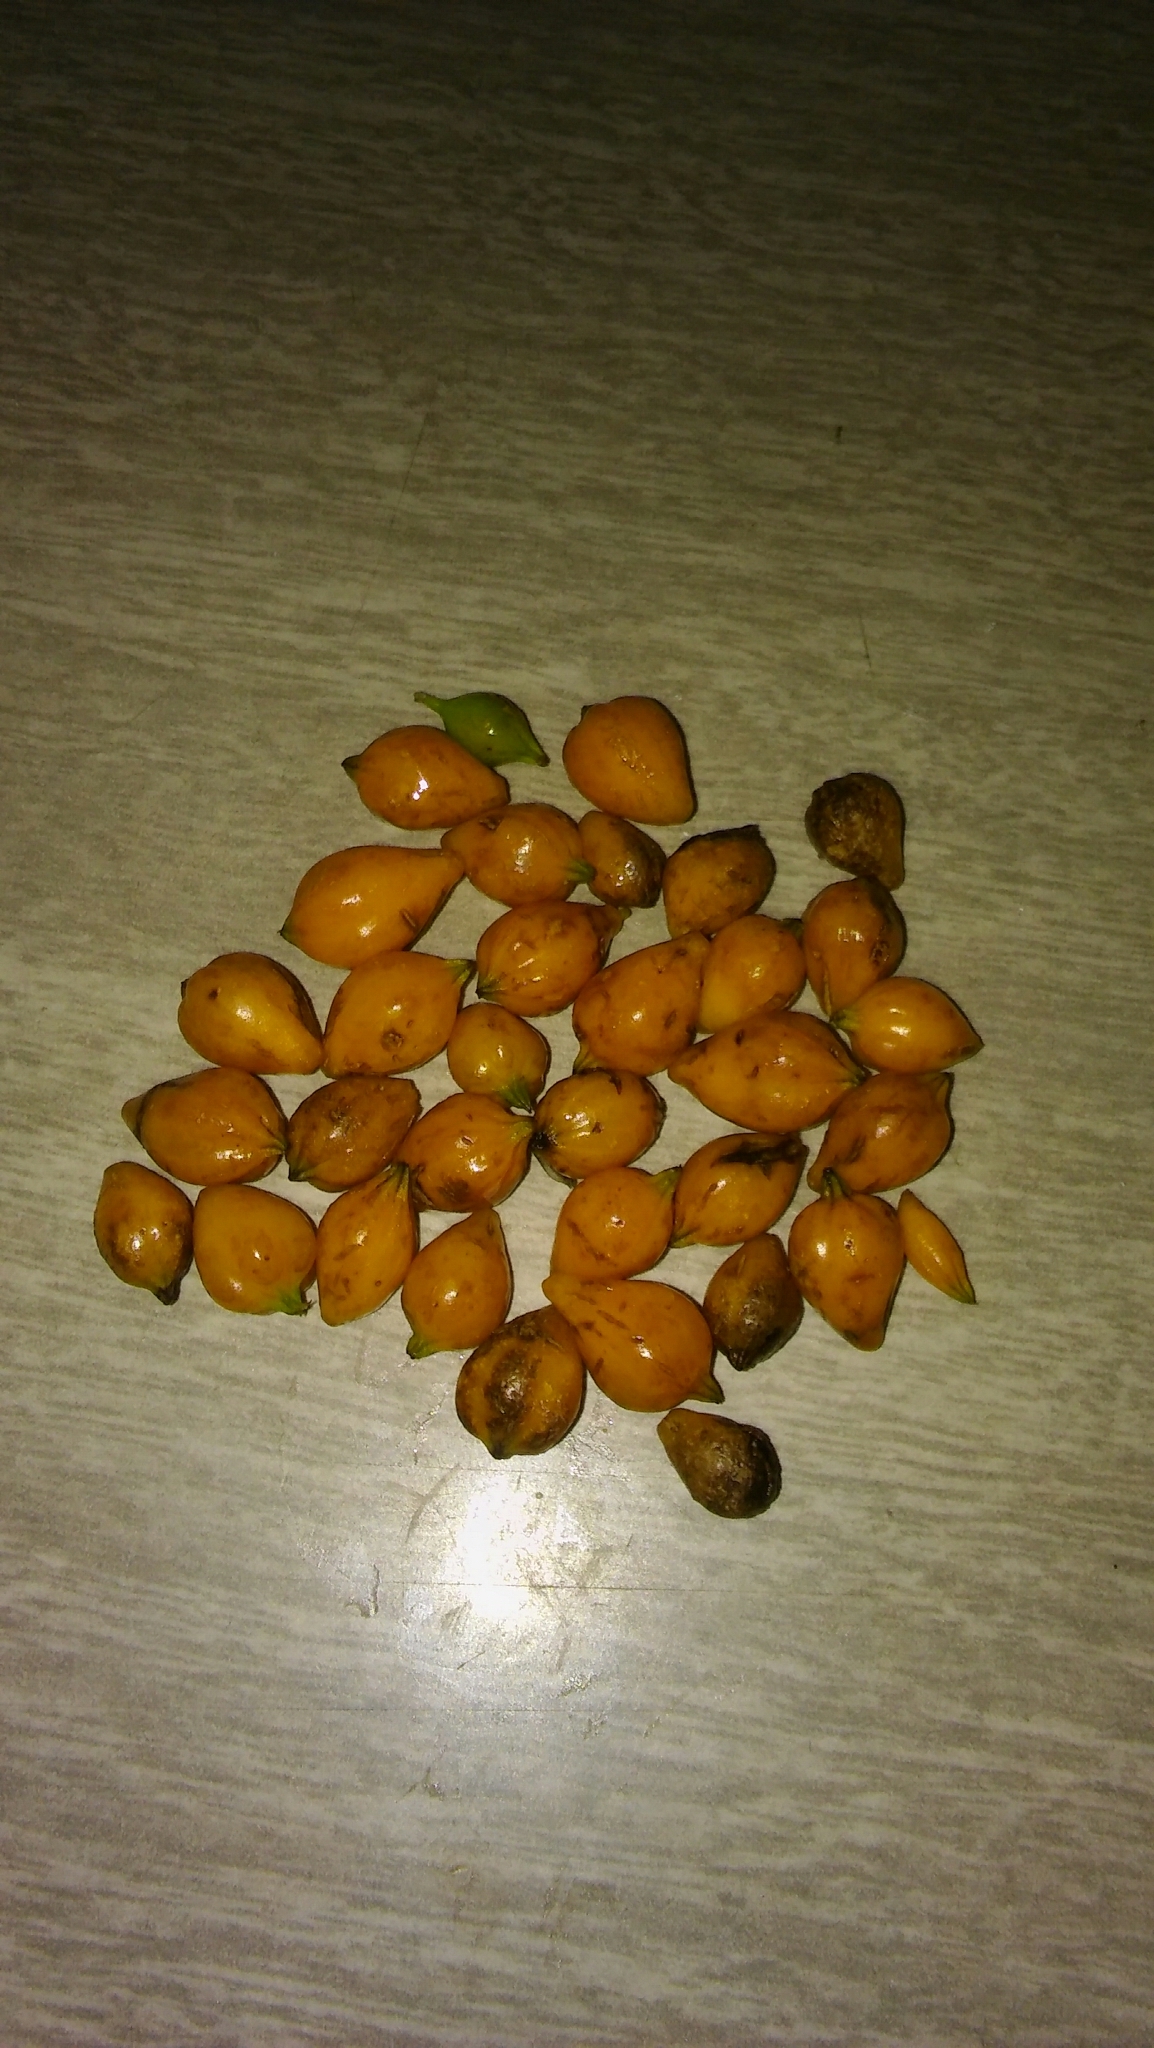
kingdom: Plantae
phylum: Tracheophyta
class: Magnoliopsida
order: Lamiales
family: Verbenaceae
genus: Duranta
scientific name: Duranta erecta
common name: Golden dewdrops
